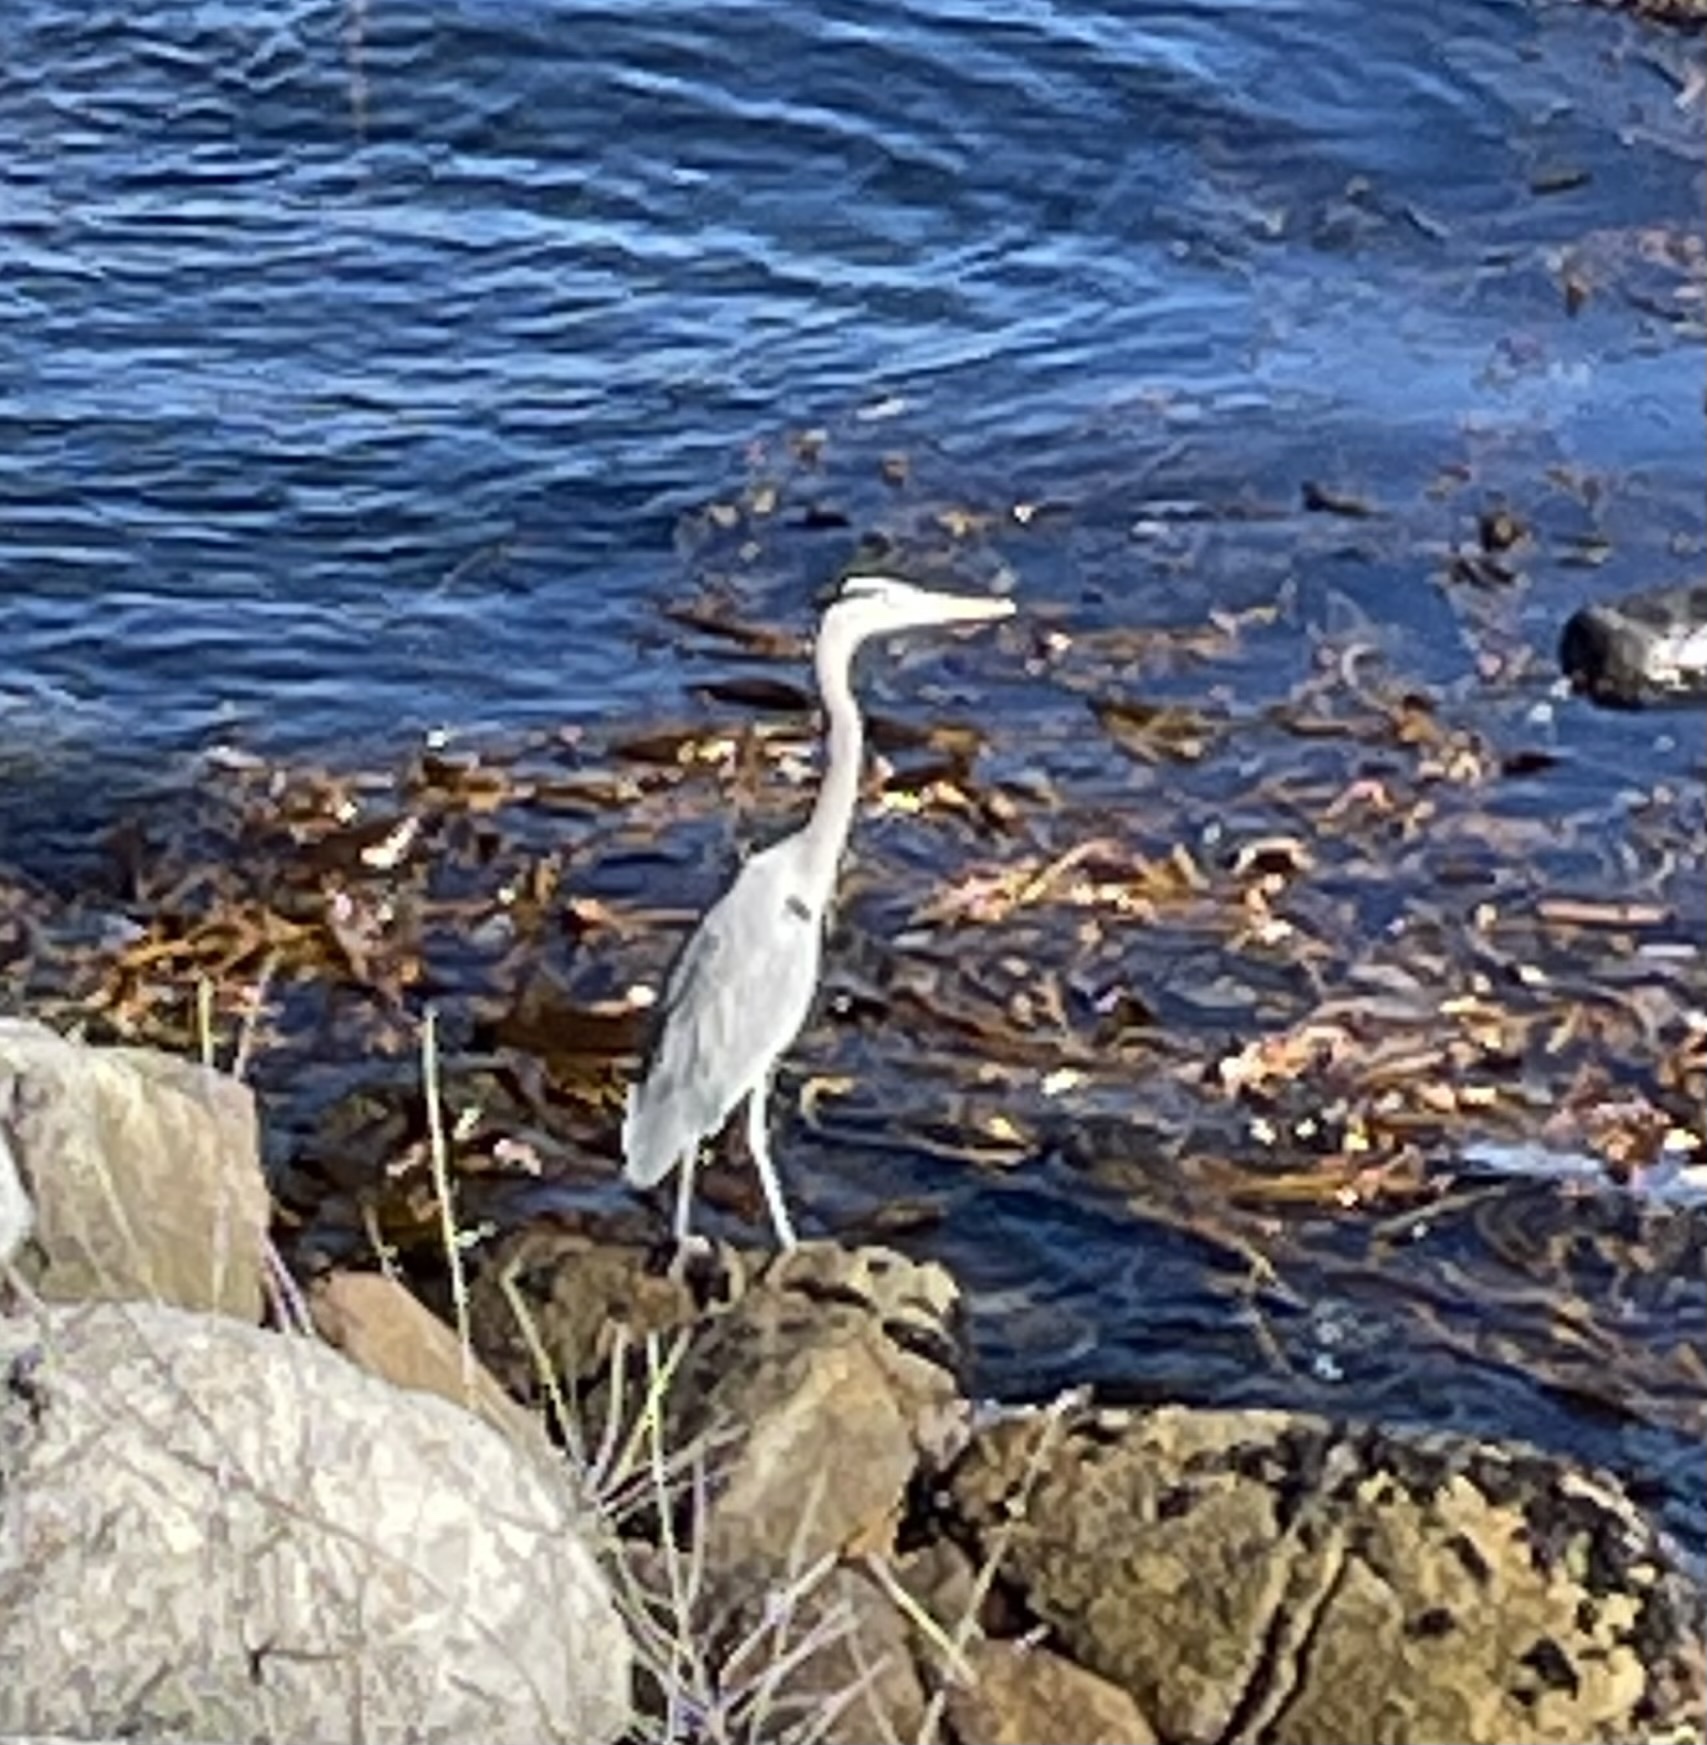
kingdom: Animalia
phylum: Chordata
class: Aves
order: Pelecaniformes
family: Ardeidae
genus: Ardea
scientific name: Ardea herodias
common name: Great blue heron
